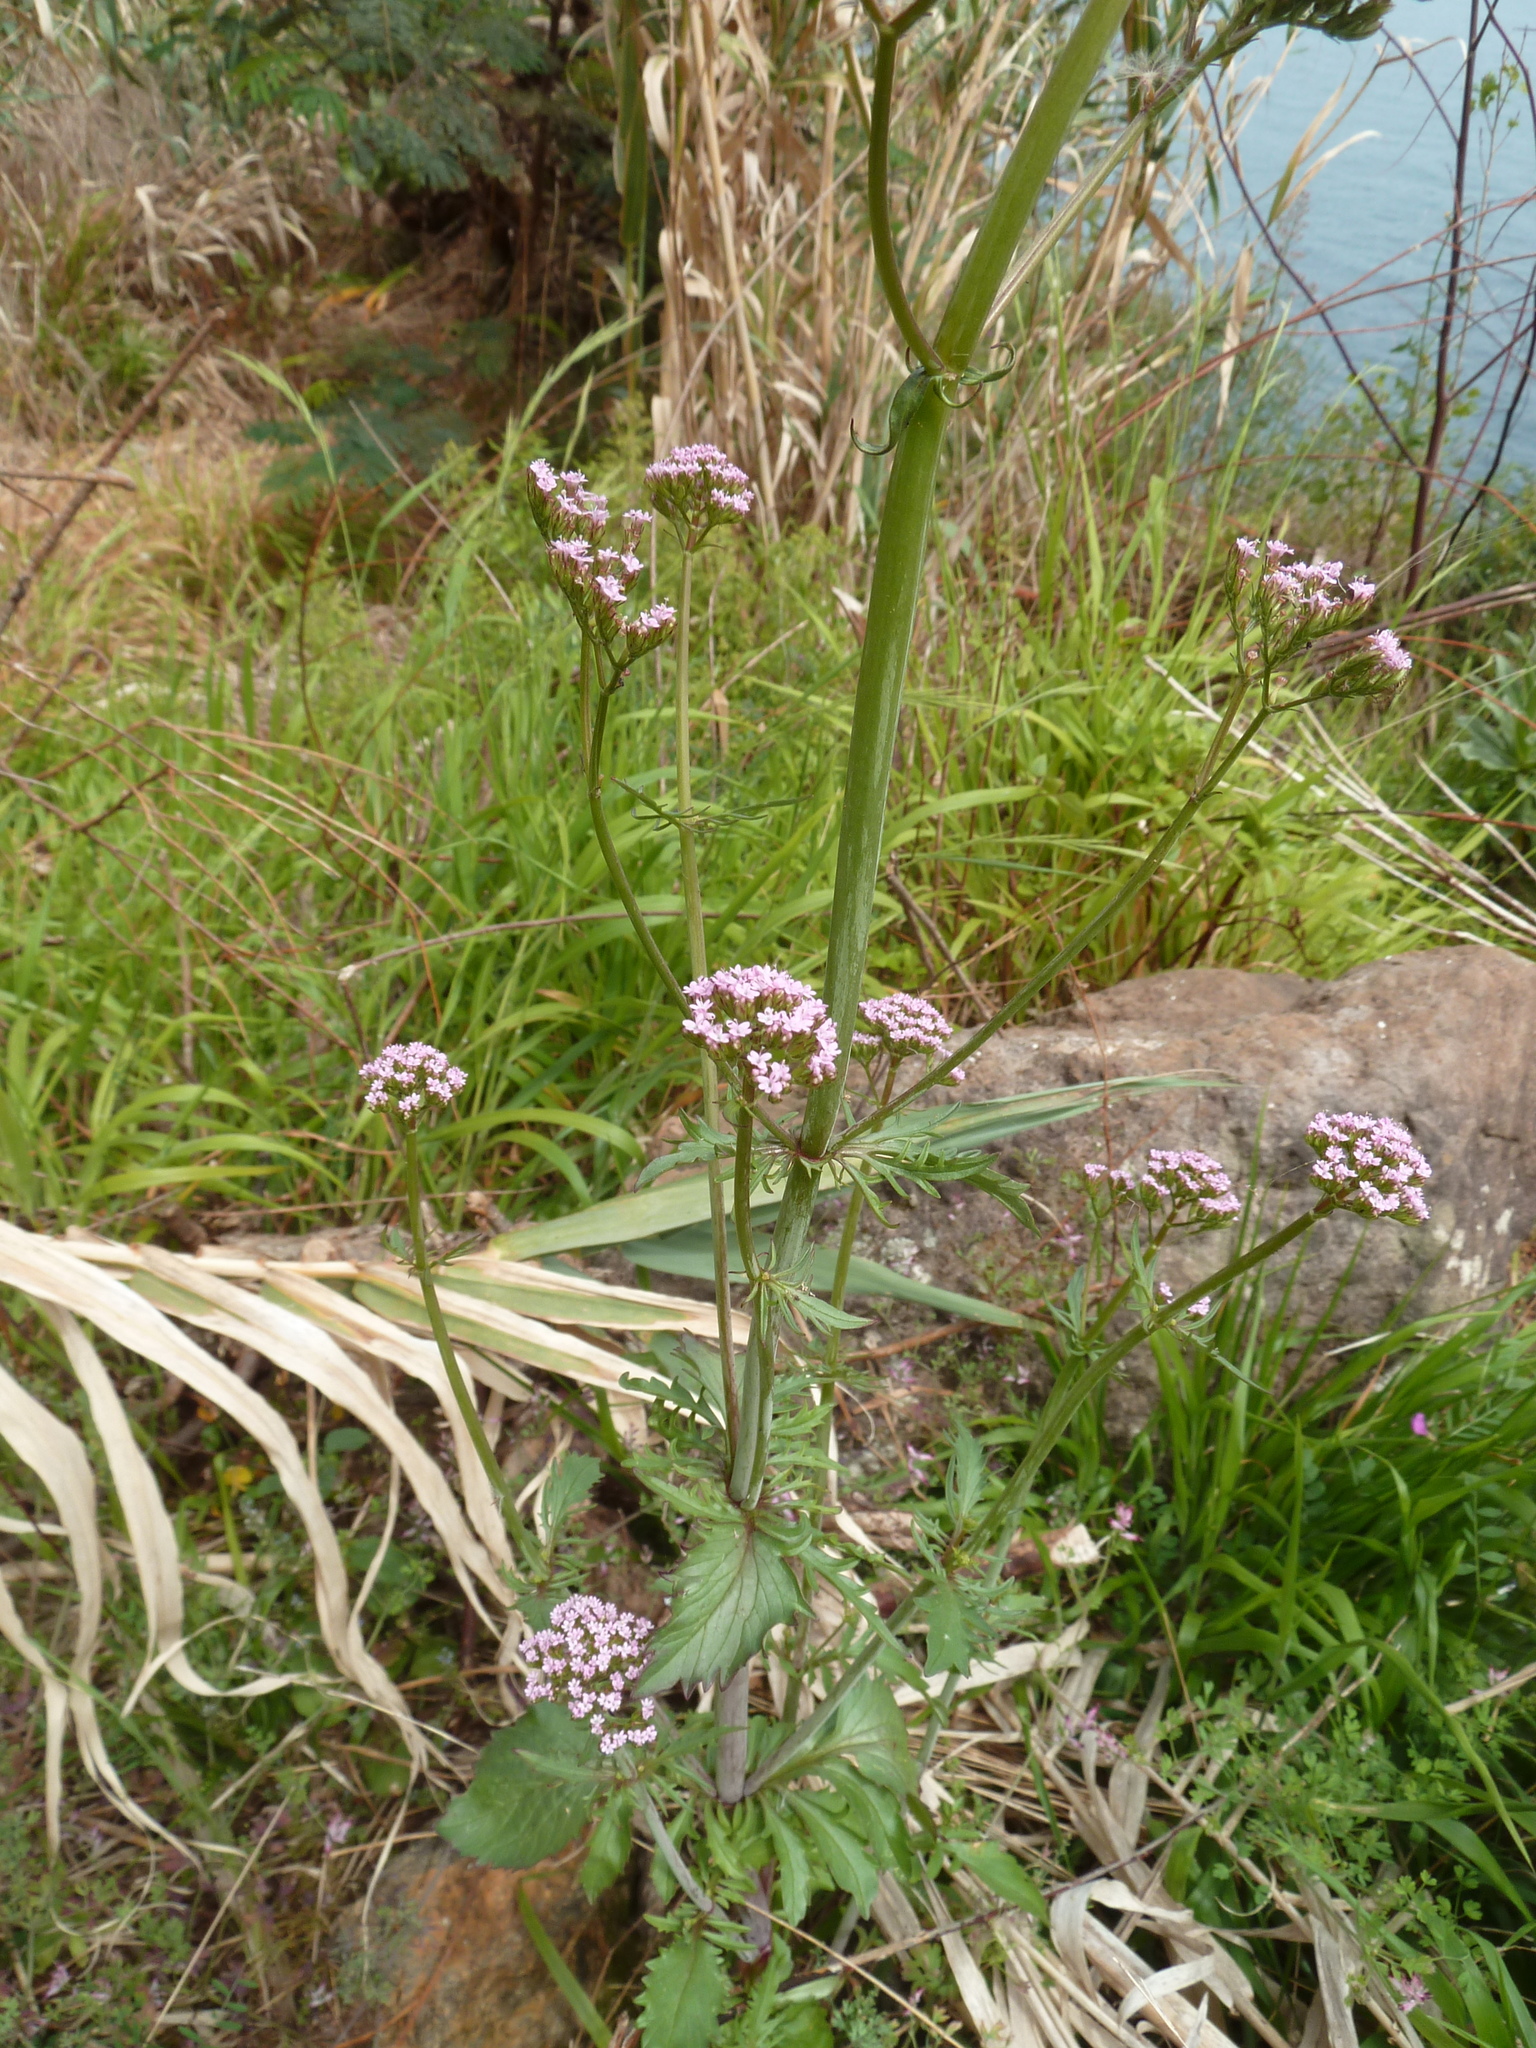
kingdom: Plantae
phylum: Tracheophyta
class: Magnoliopsida
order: Dipsacales
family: Caprifoliaceae
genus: Centranthus
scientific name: Centranthus calcitrapae
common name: Annual valerian
